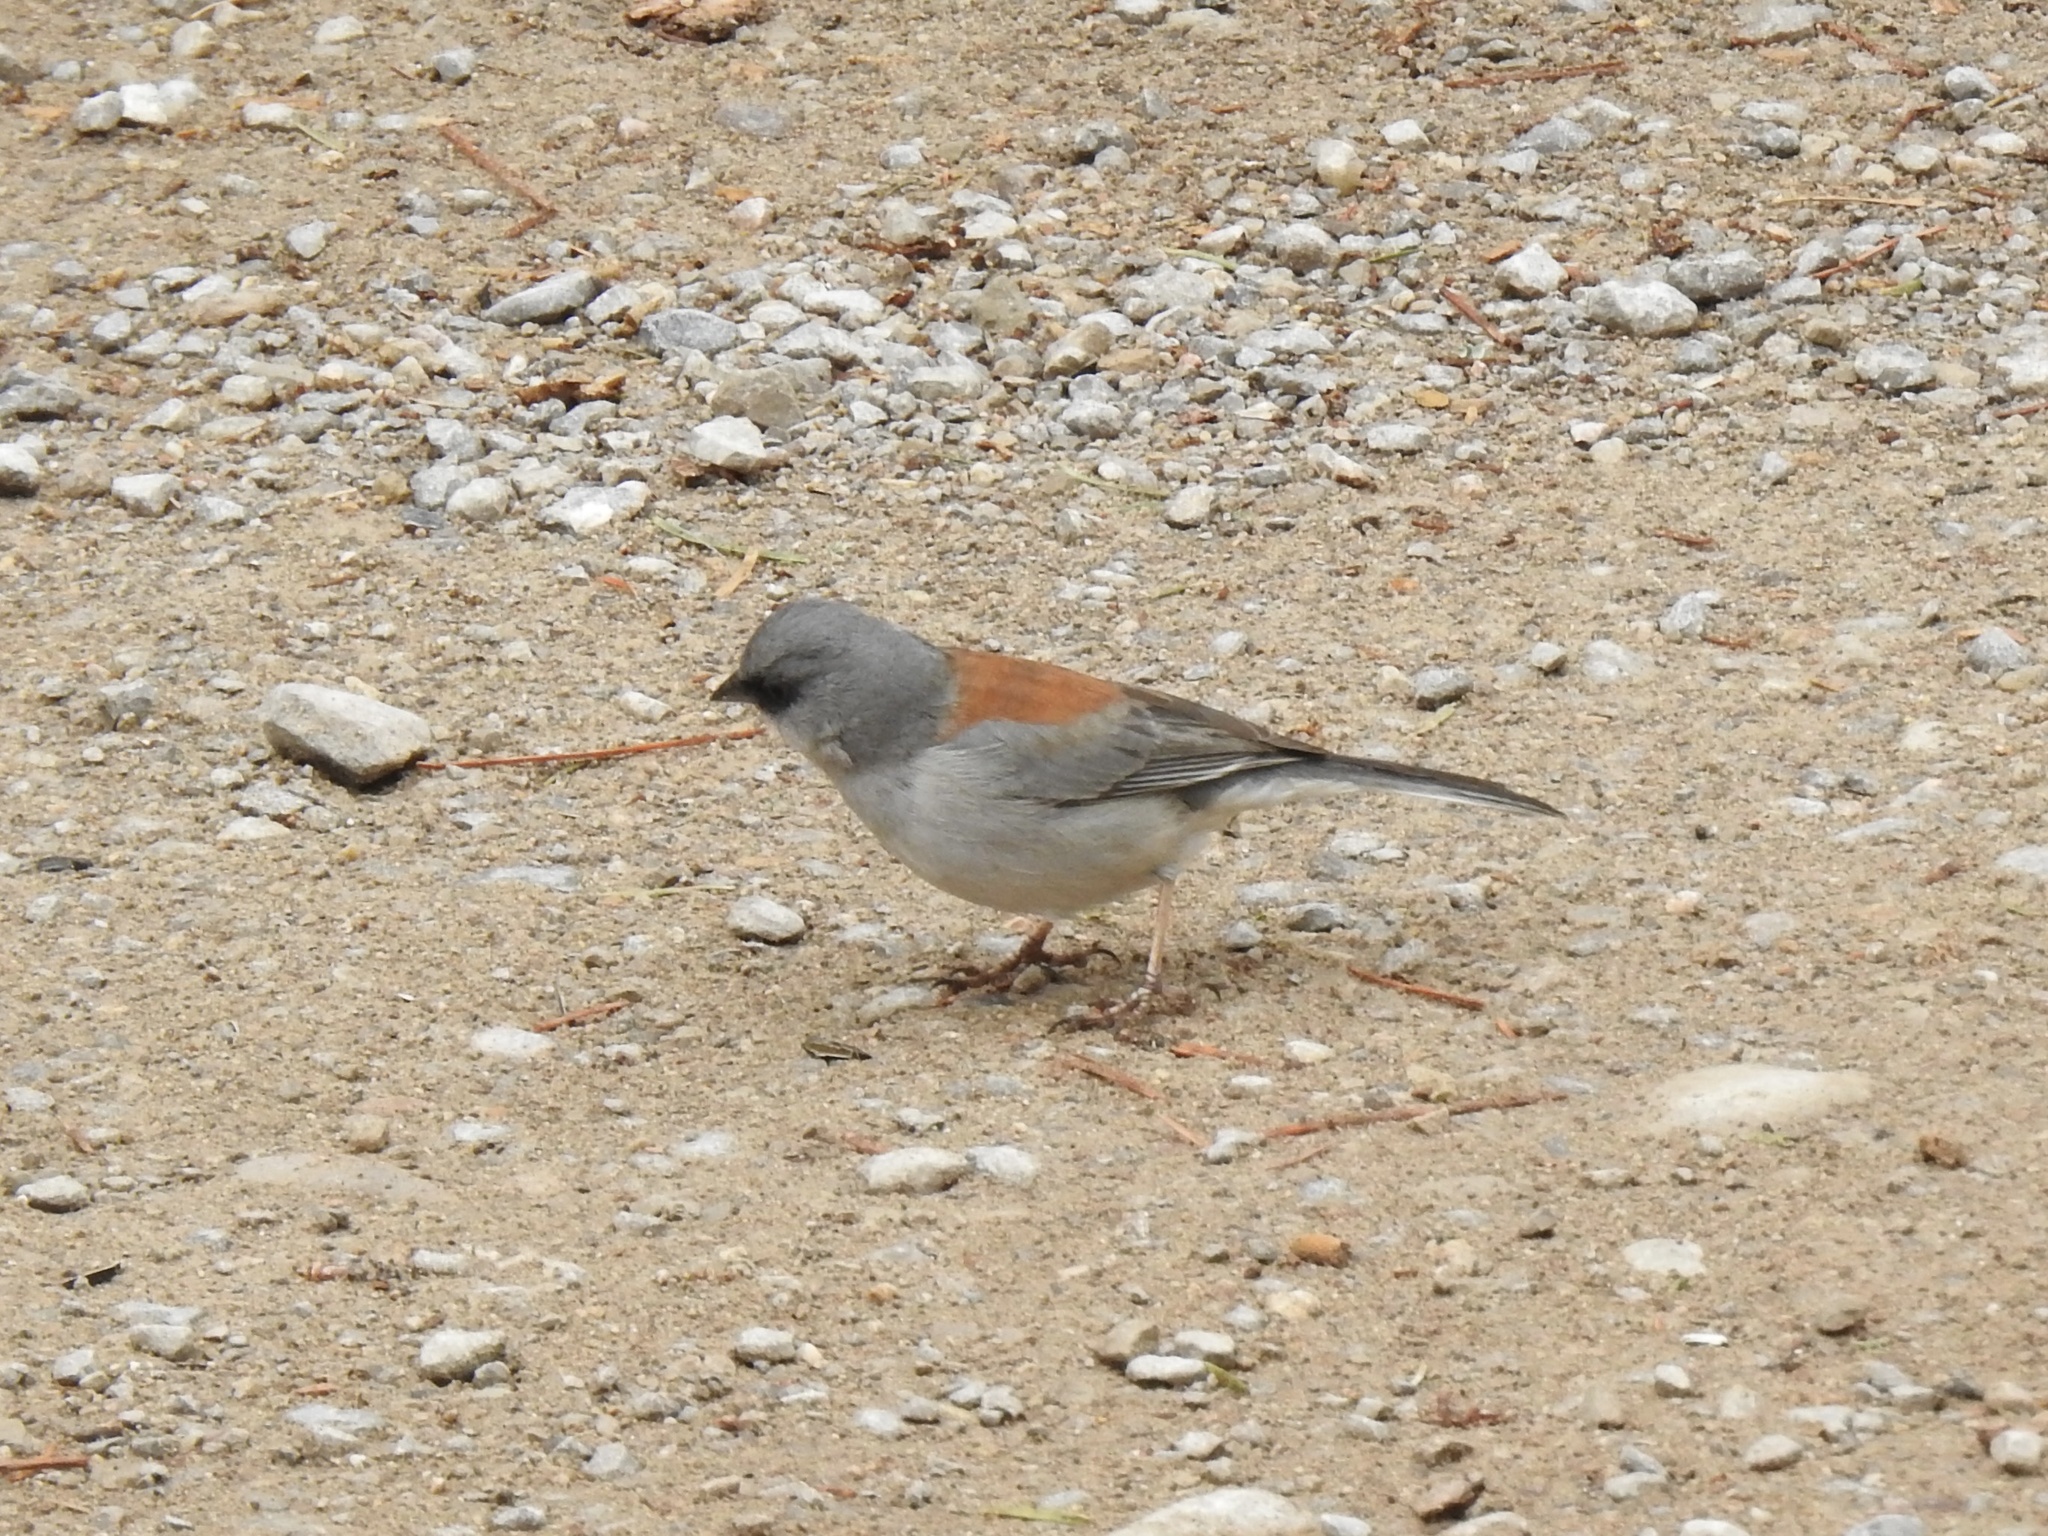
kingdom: Animalia
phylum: Chordata
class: Aves
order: Passeriformes
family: Passerellidae
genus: Junco
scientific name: Junco hyemalis
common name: Dark-eyed junco
